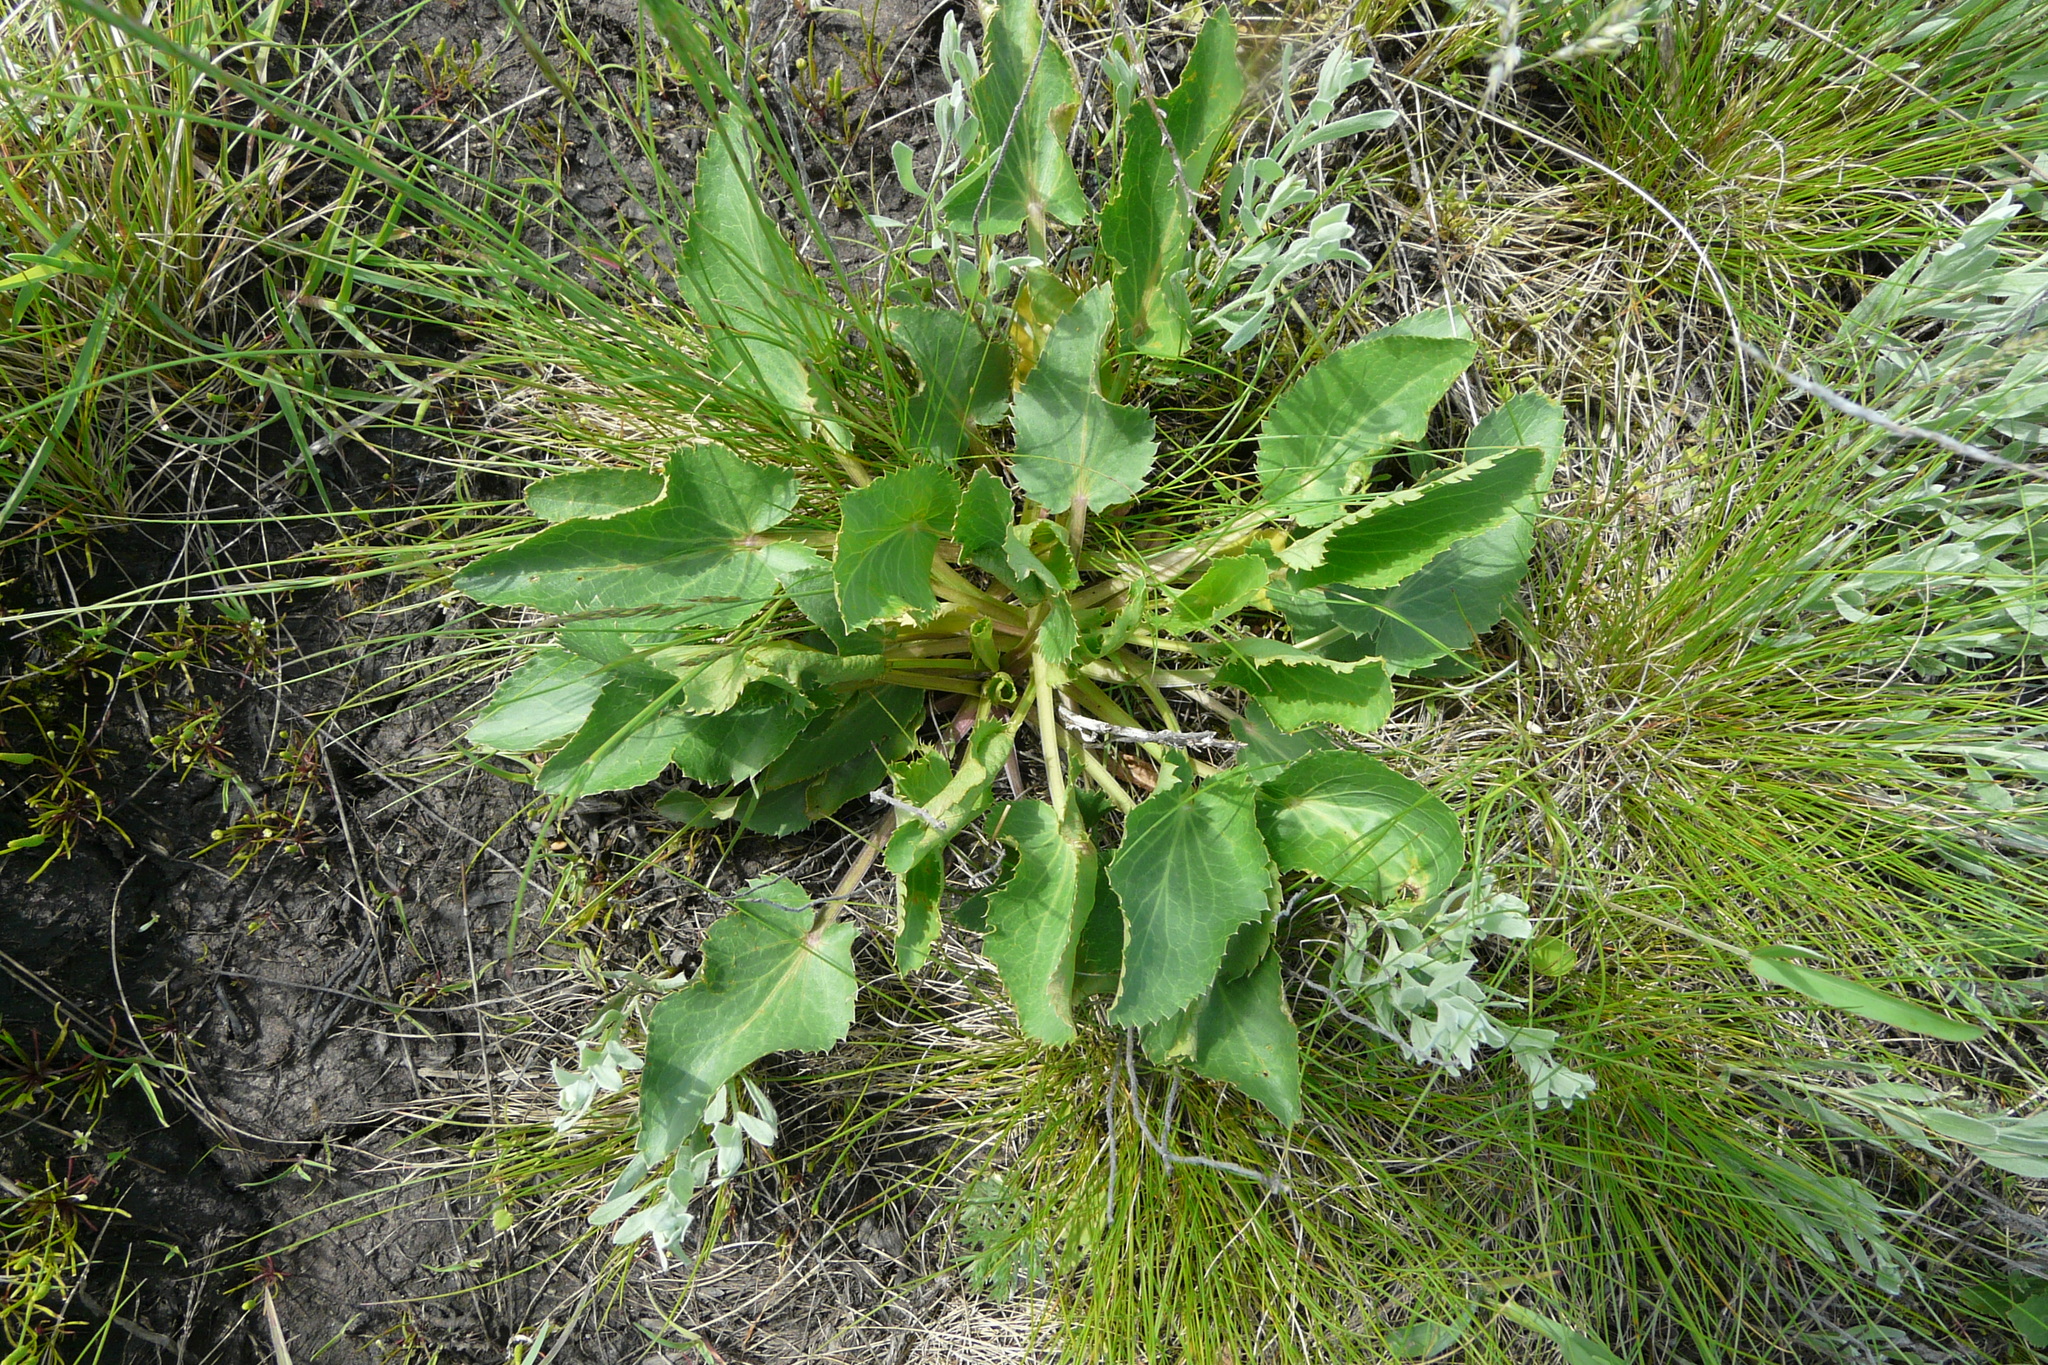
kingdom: Plantae
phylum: Tracheophyta
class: Magnoliopsida
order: Apiales
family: Apiaceae
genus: Eryngium
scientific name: Eryngium planum
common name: Blue eryngo
